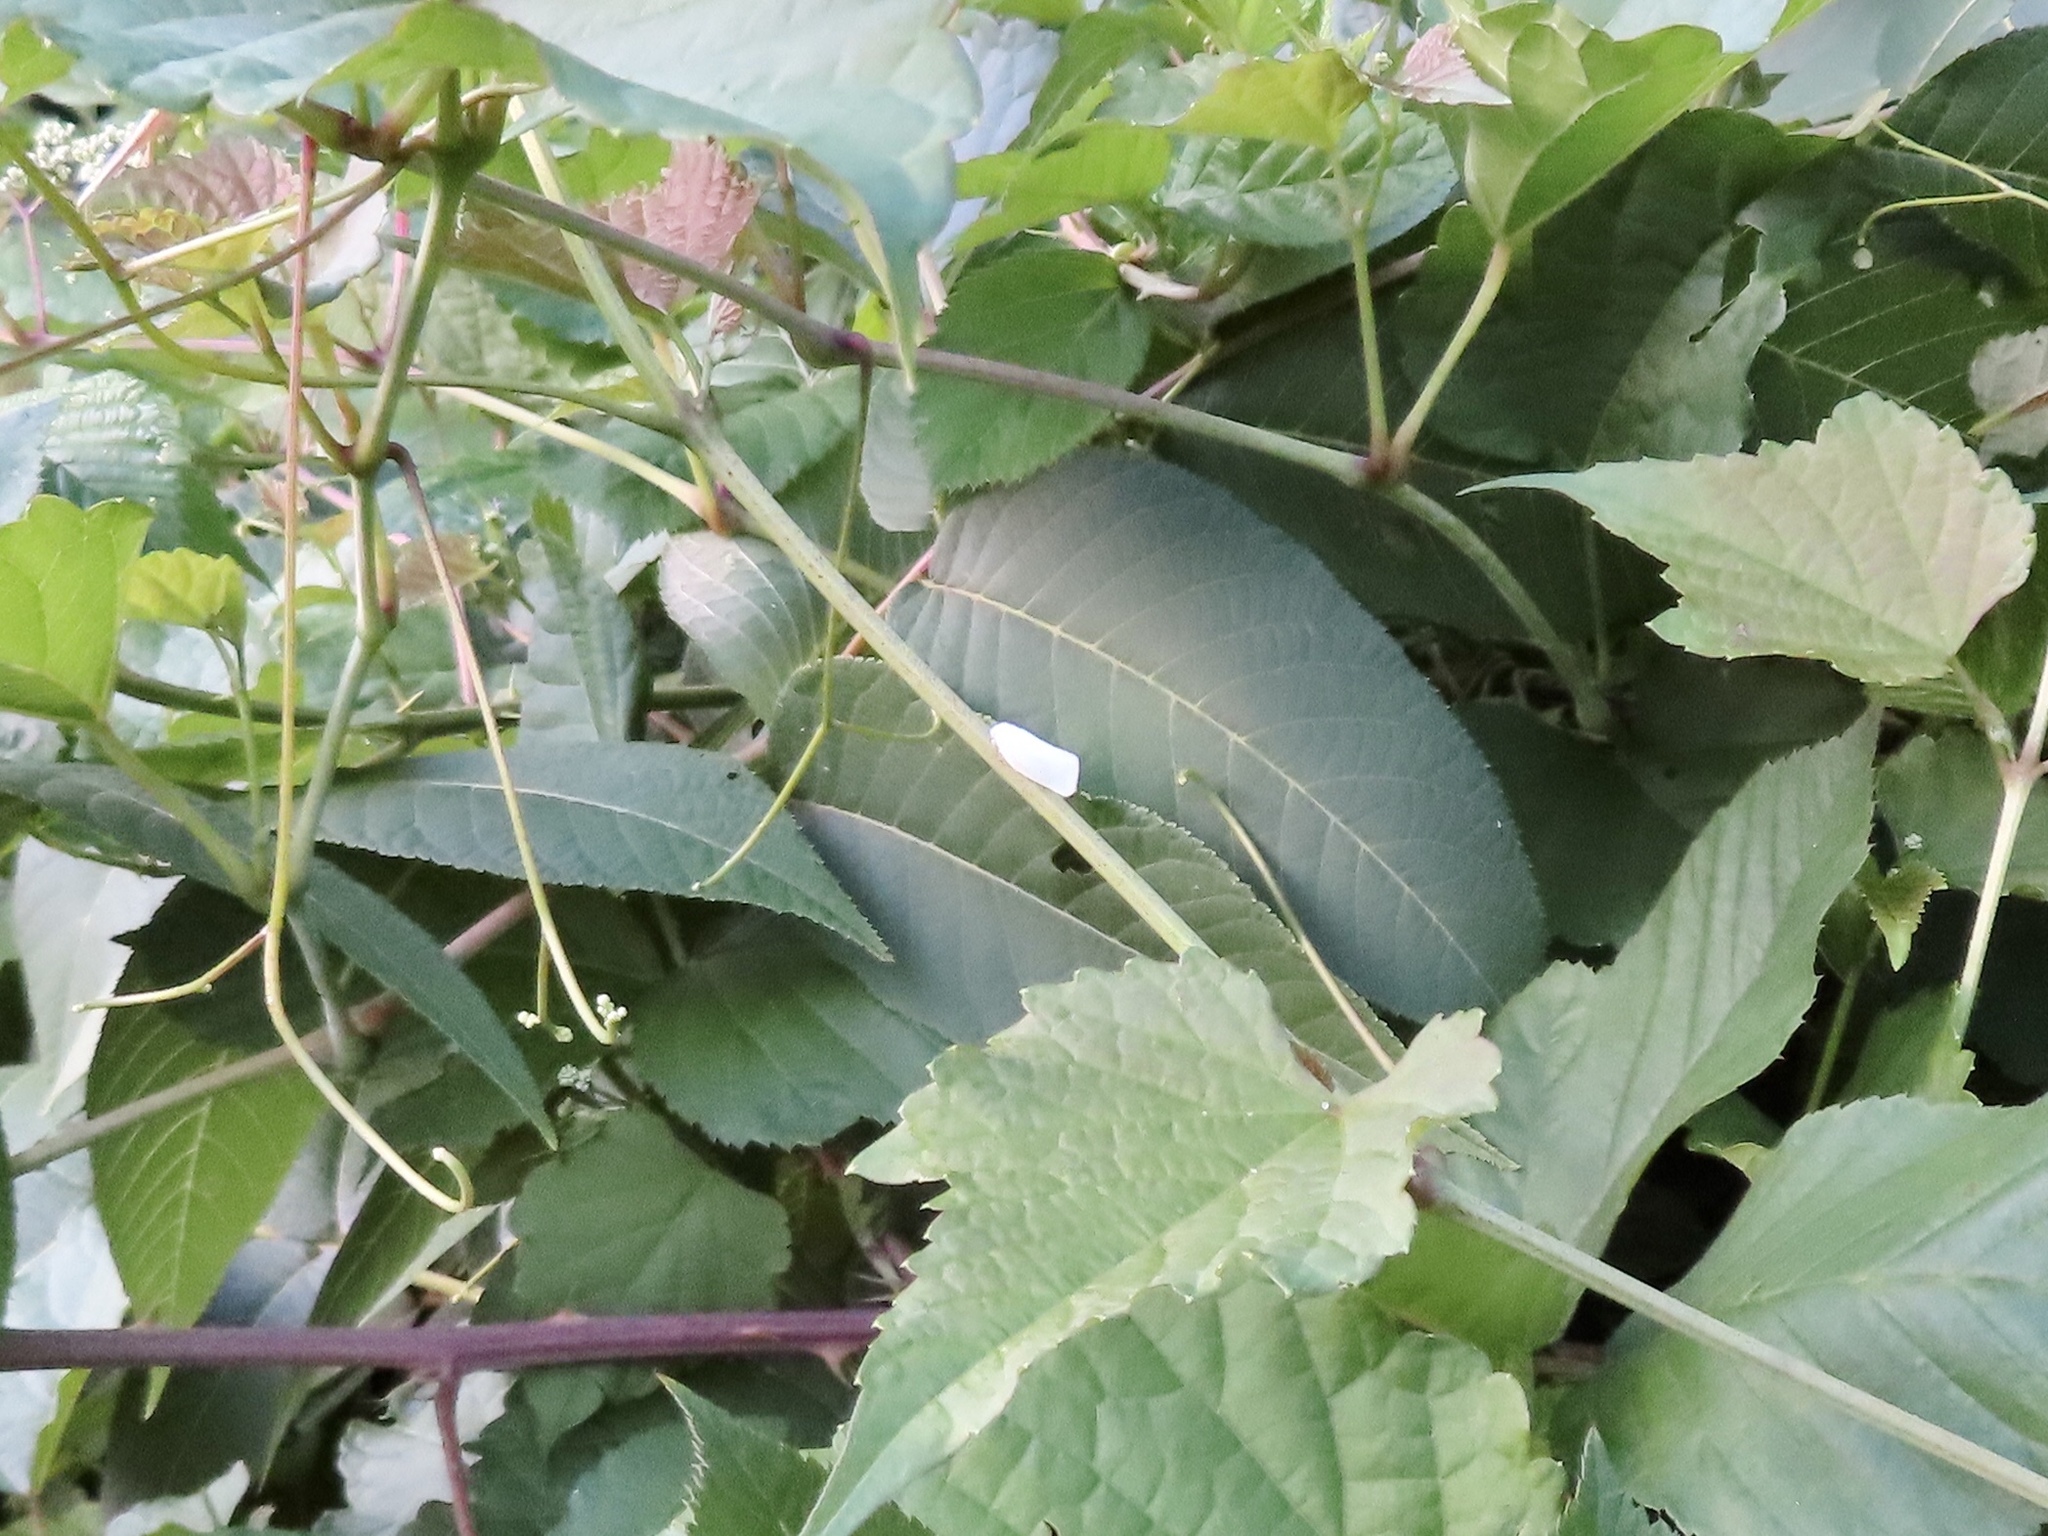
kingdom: Animalia
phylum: Arthropoda
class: Insecta
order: Hemiptera
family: Flatidae
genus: Flatormenis
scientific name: Flatormenis proxima
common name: Northern flatid planthopper
